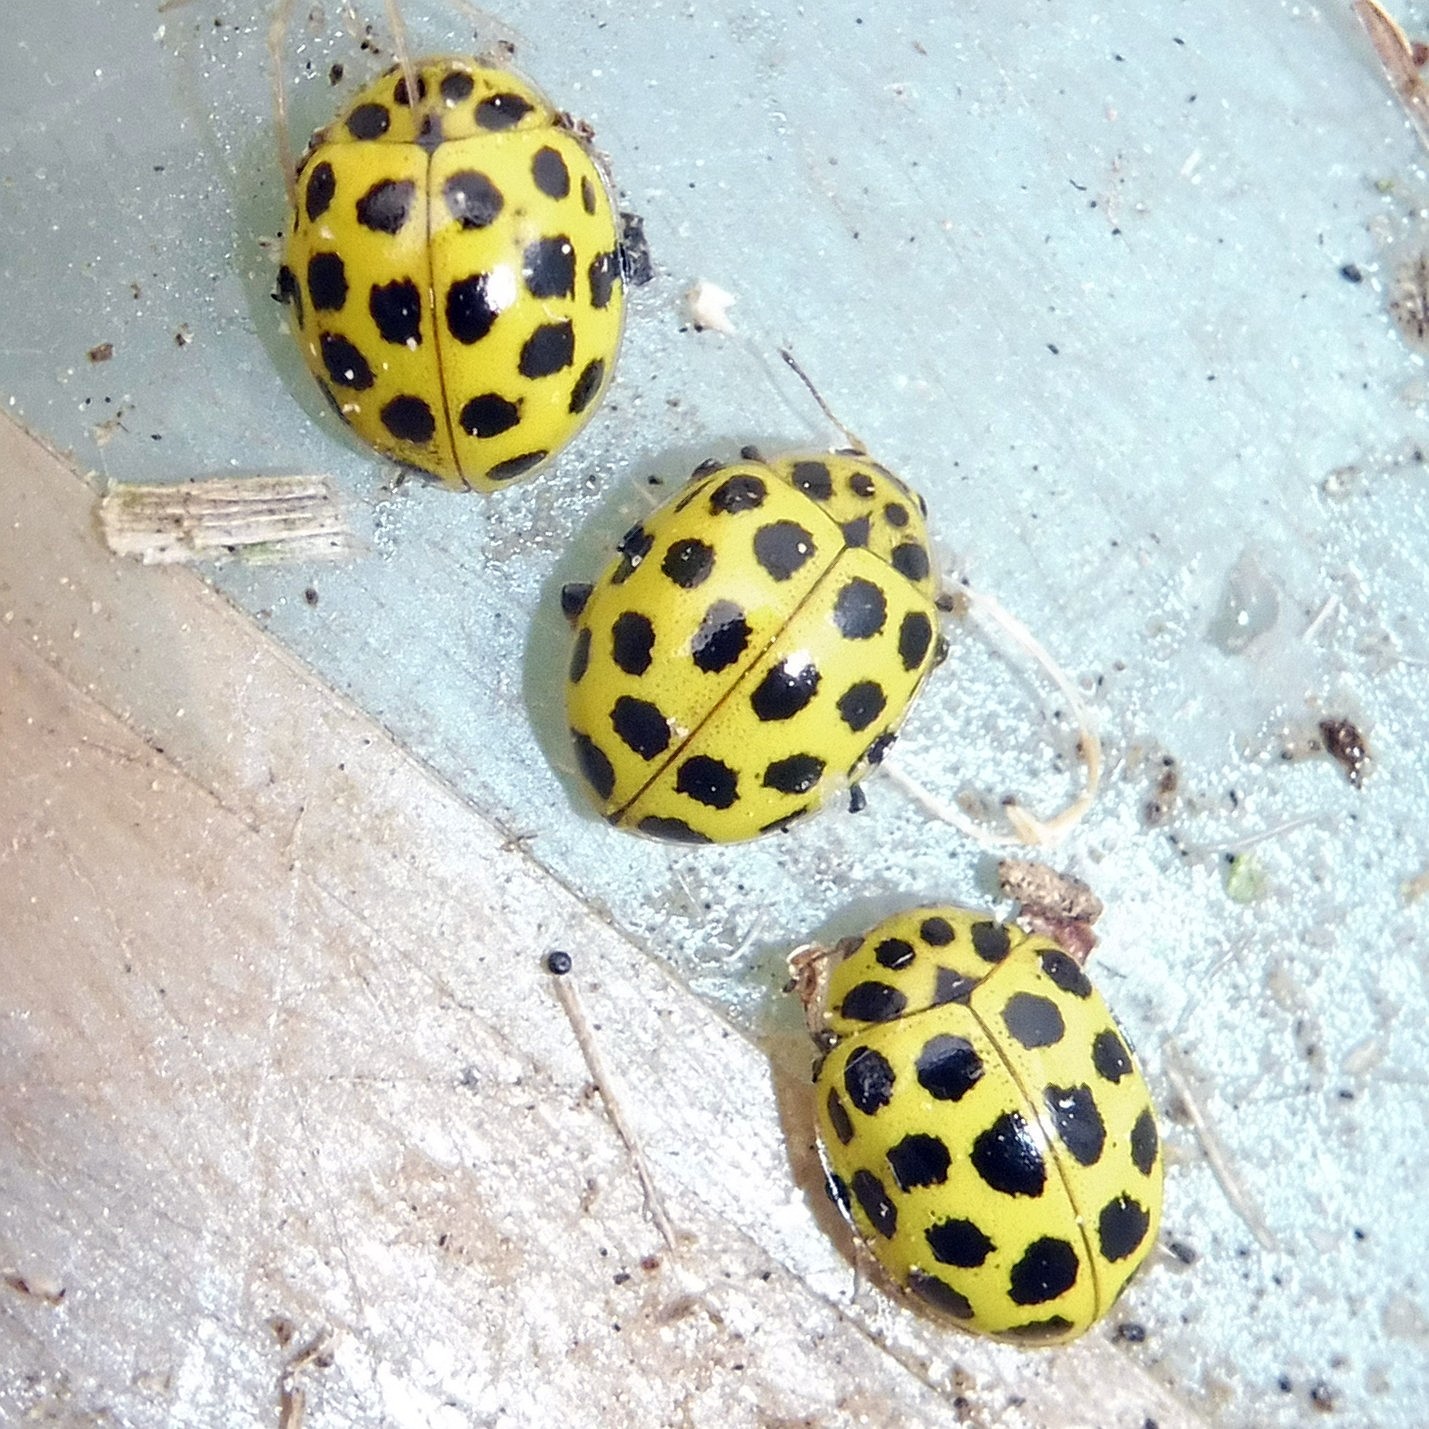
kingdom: Animalia
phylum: Arthropoda
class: Insecta
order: Coleoptera
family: Coccinellidae
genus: Psyllobora
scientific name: Psyllobora vigintiduopunctata
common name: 22-spot ladybird
